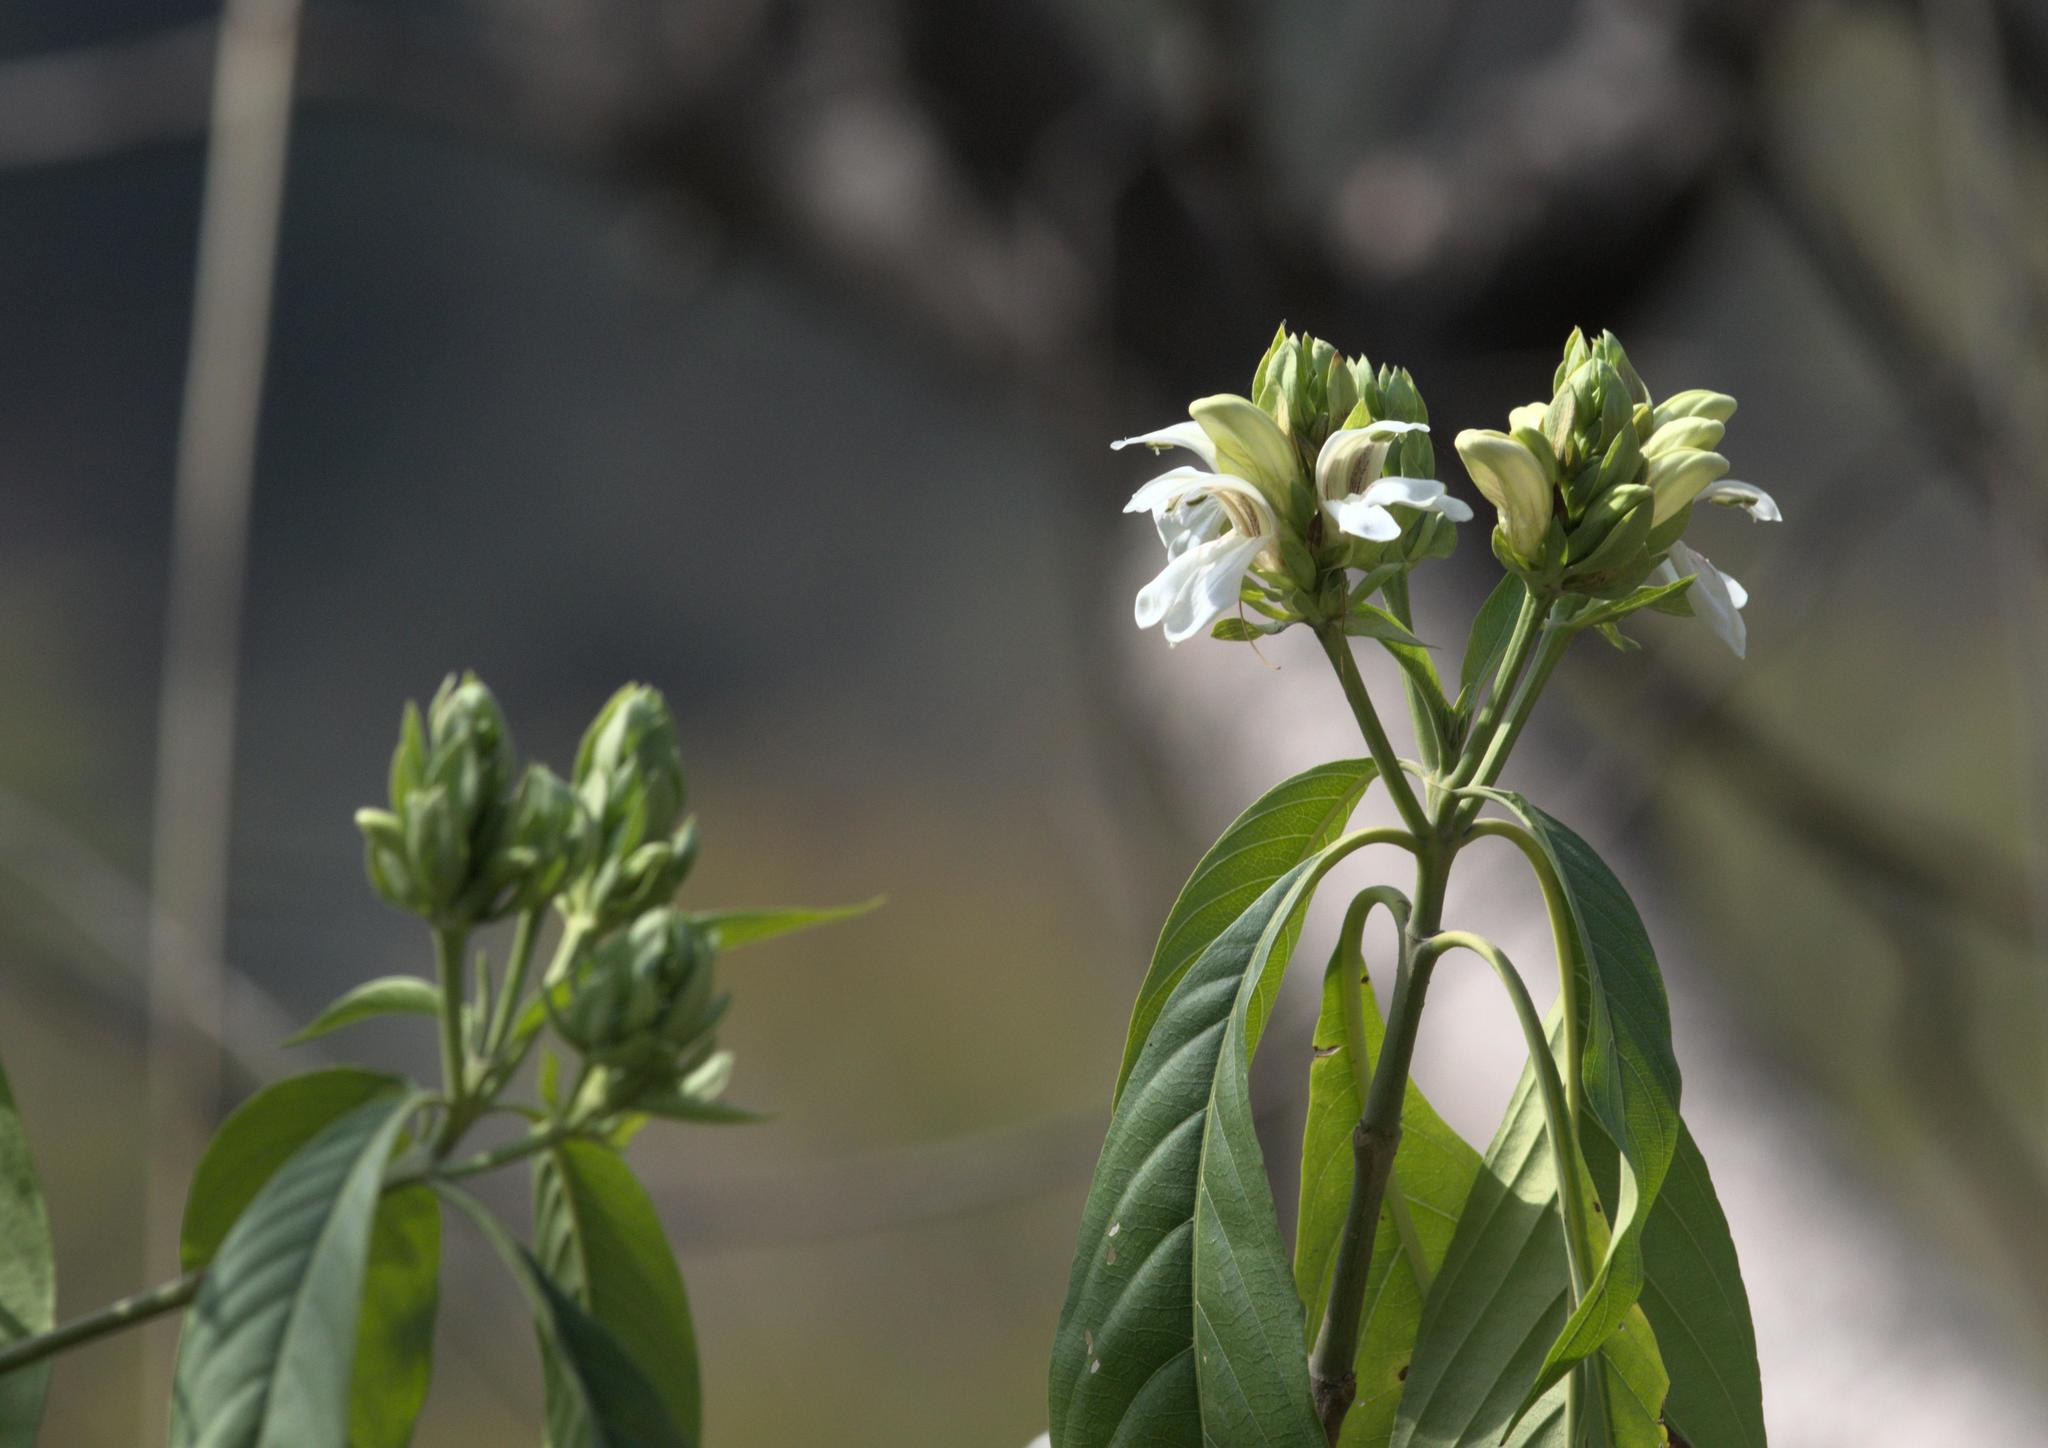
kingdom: Plantae
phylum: Tracheophyta
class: Magnoliopsida
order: Lamiales
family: Acanthaceae
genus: Justicia
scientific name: Justicia adhatoda
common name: Malabar nut
